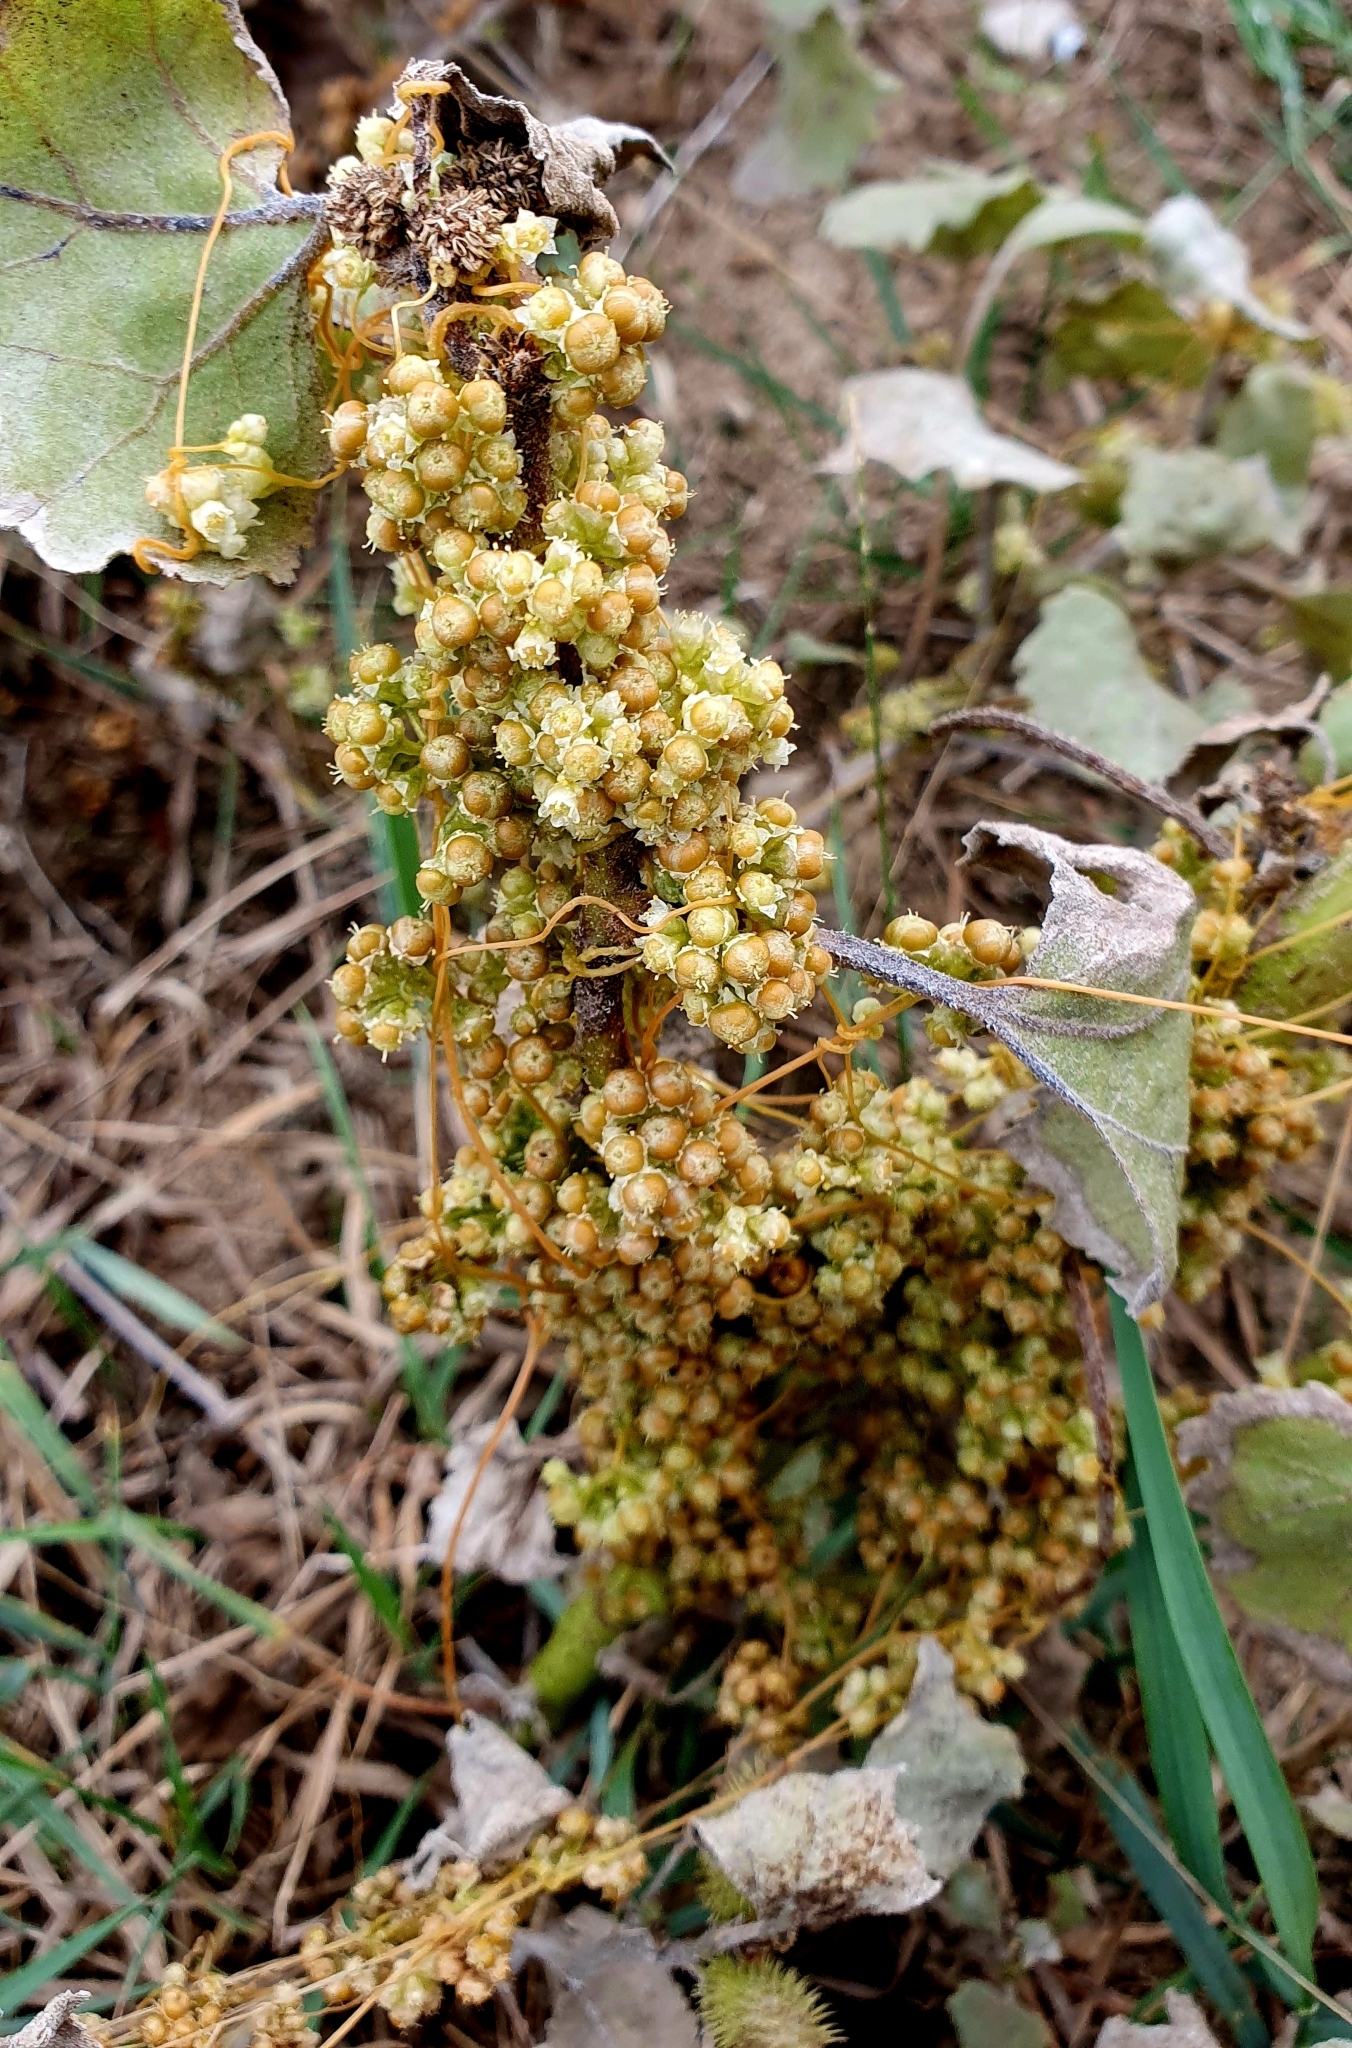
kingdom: Plantae
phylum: Tracheophyta
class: Magnoliopsida
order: Solanales
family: Convolvulaceae
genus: Cuscuta
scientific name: Cuscuta campestris
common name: Yellow dodder
